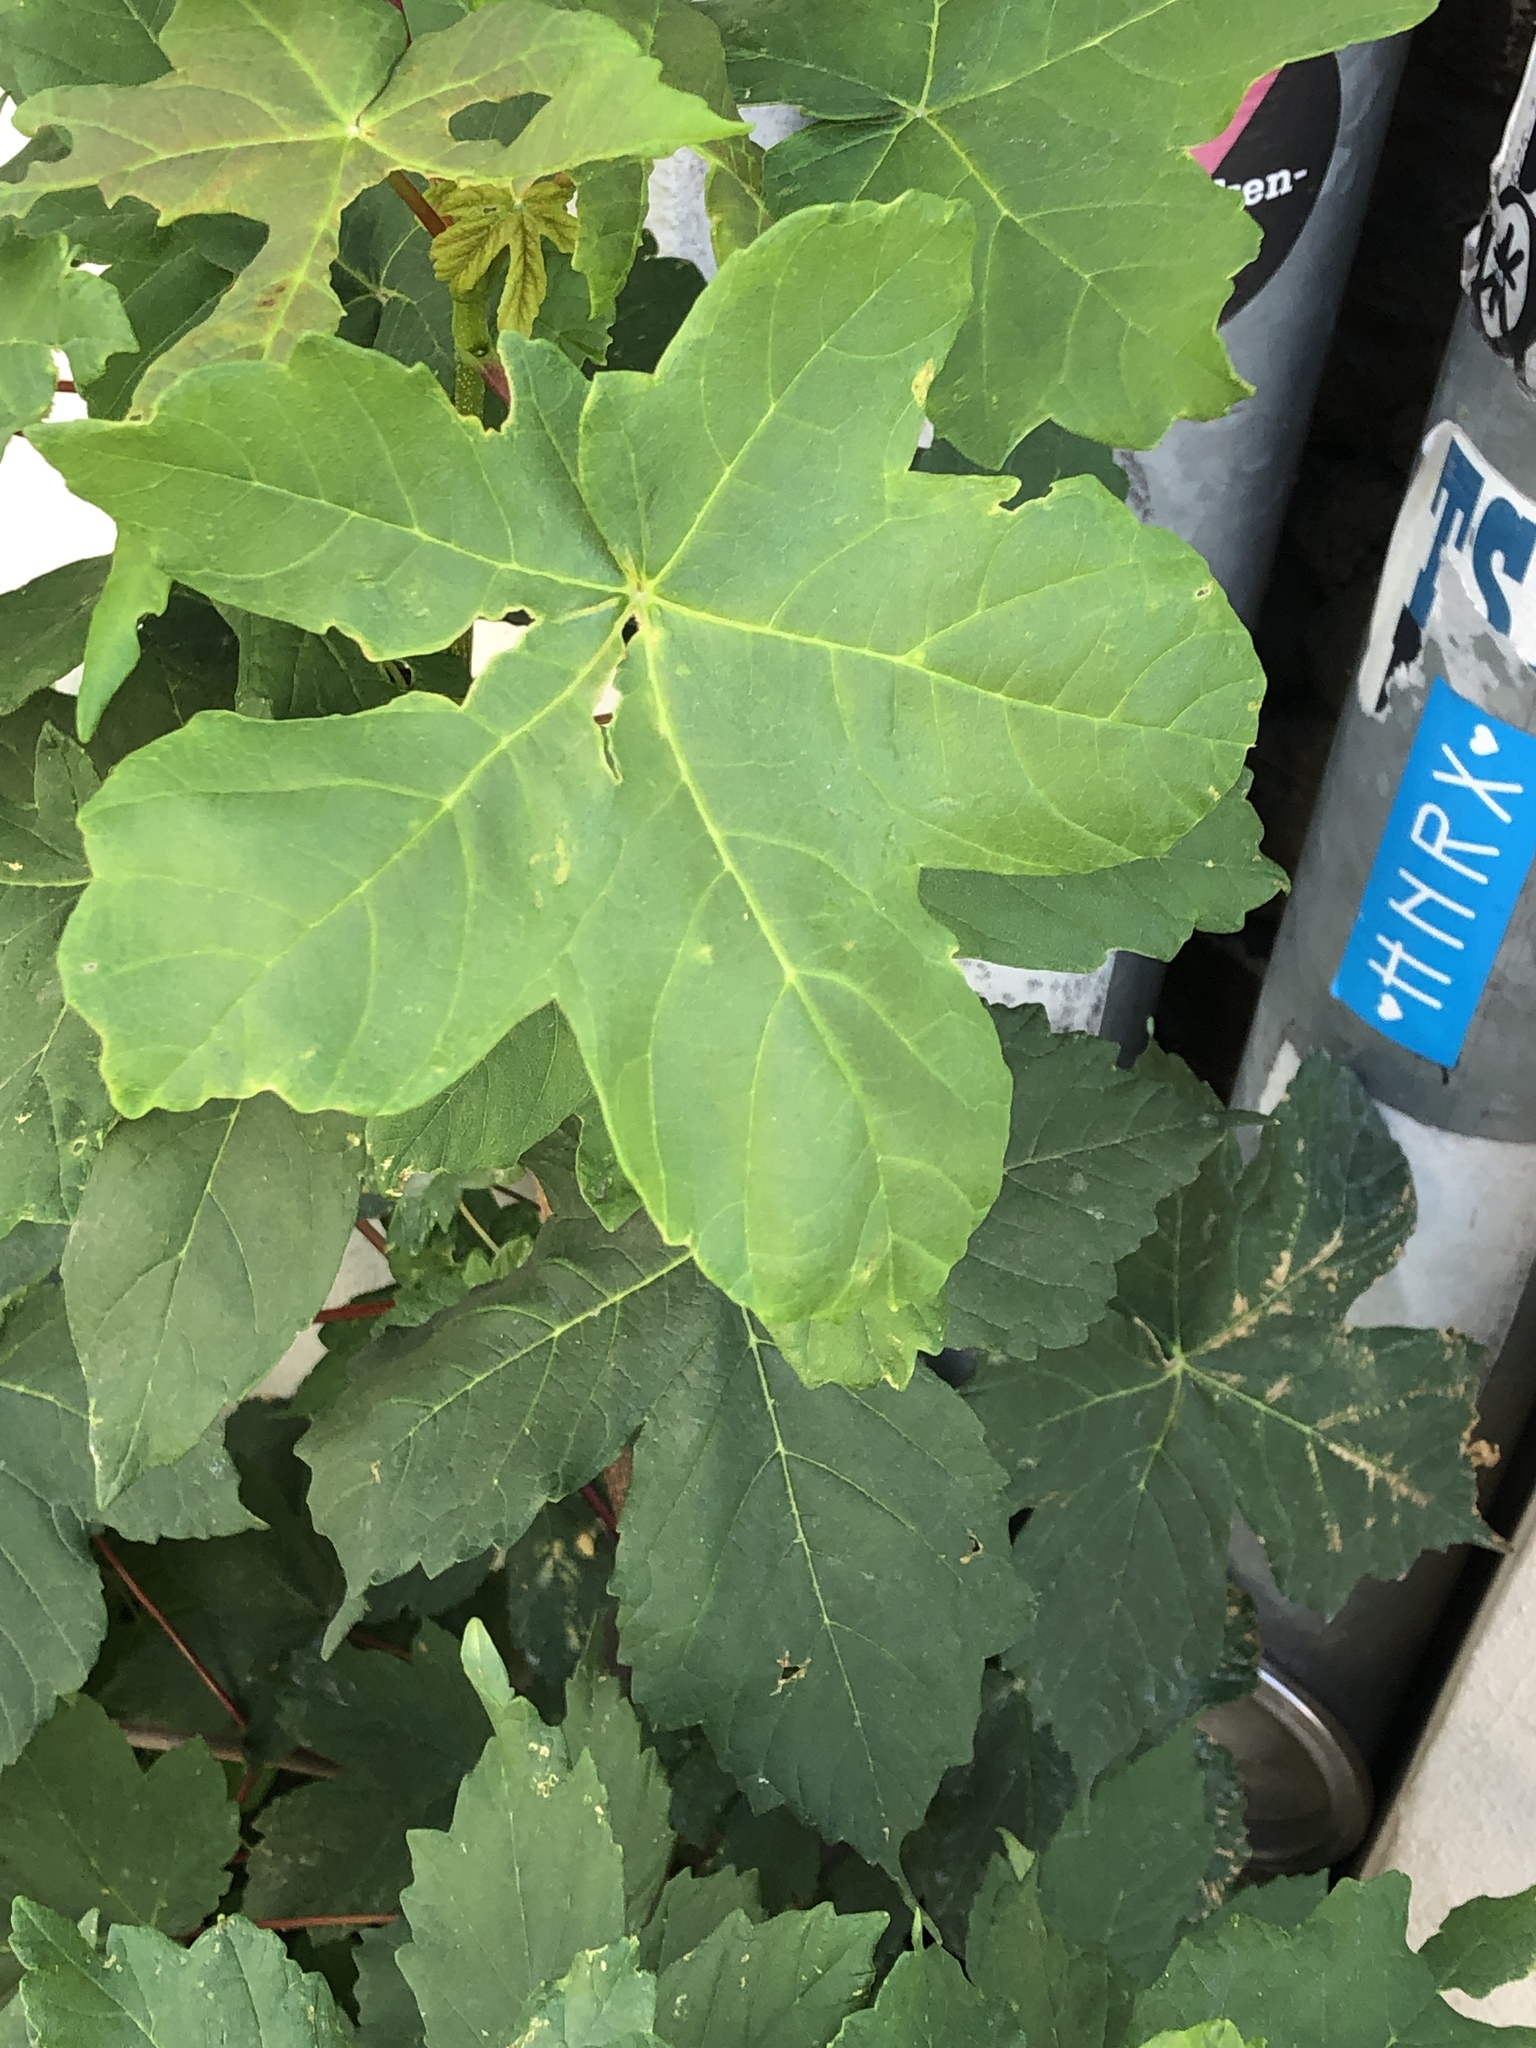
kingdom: Plantae
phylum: Tracheophyta
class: Magnoliopsida
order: Sapindales
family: Sapindaceae
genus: Acer
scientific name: Acer pseudoplatanus
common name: Sycamore
